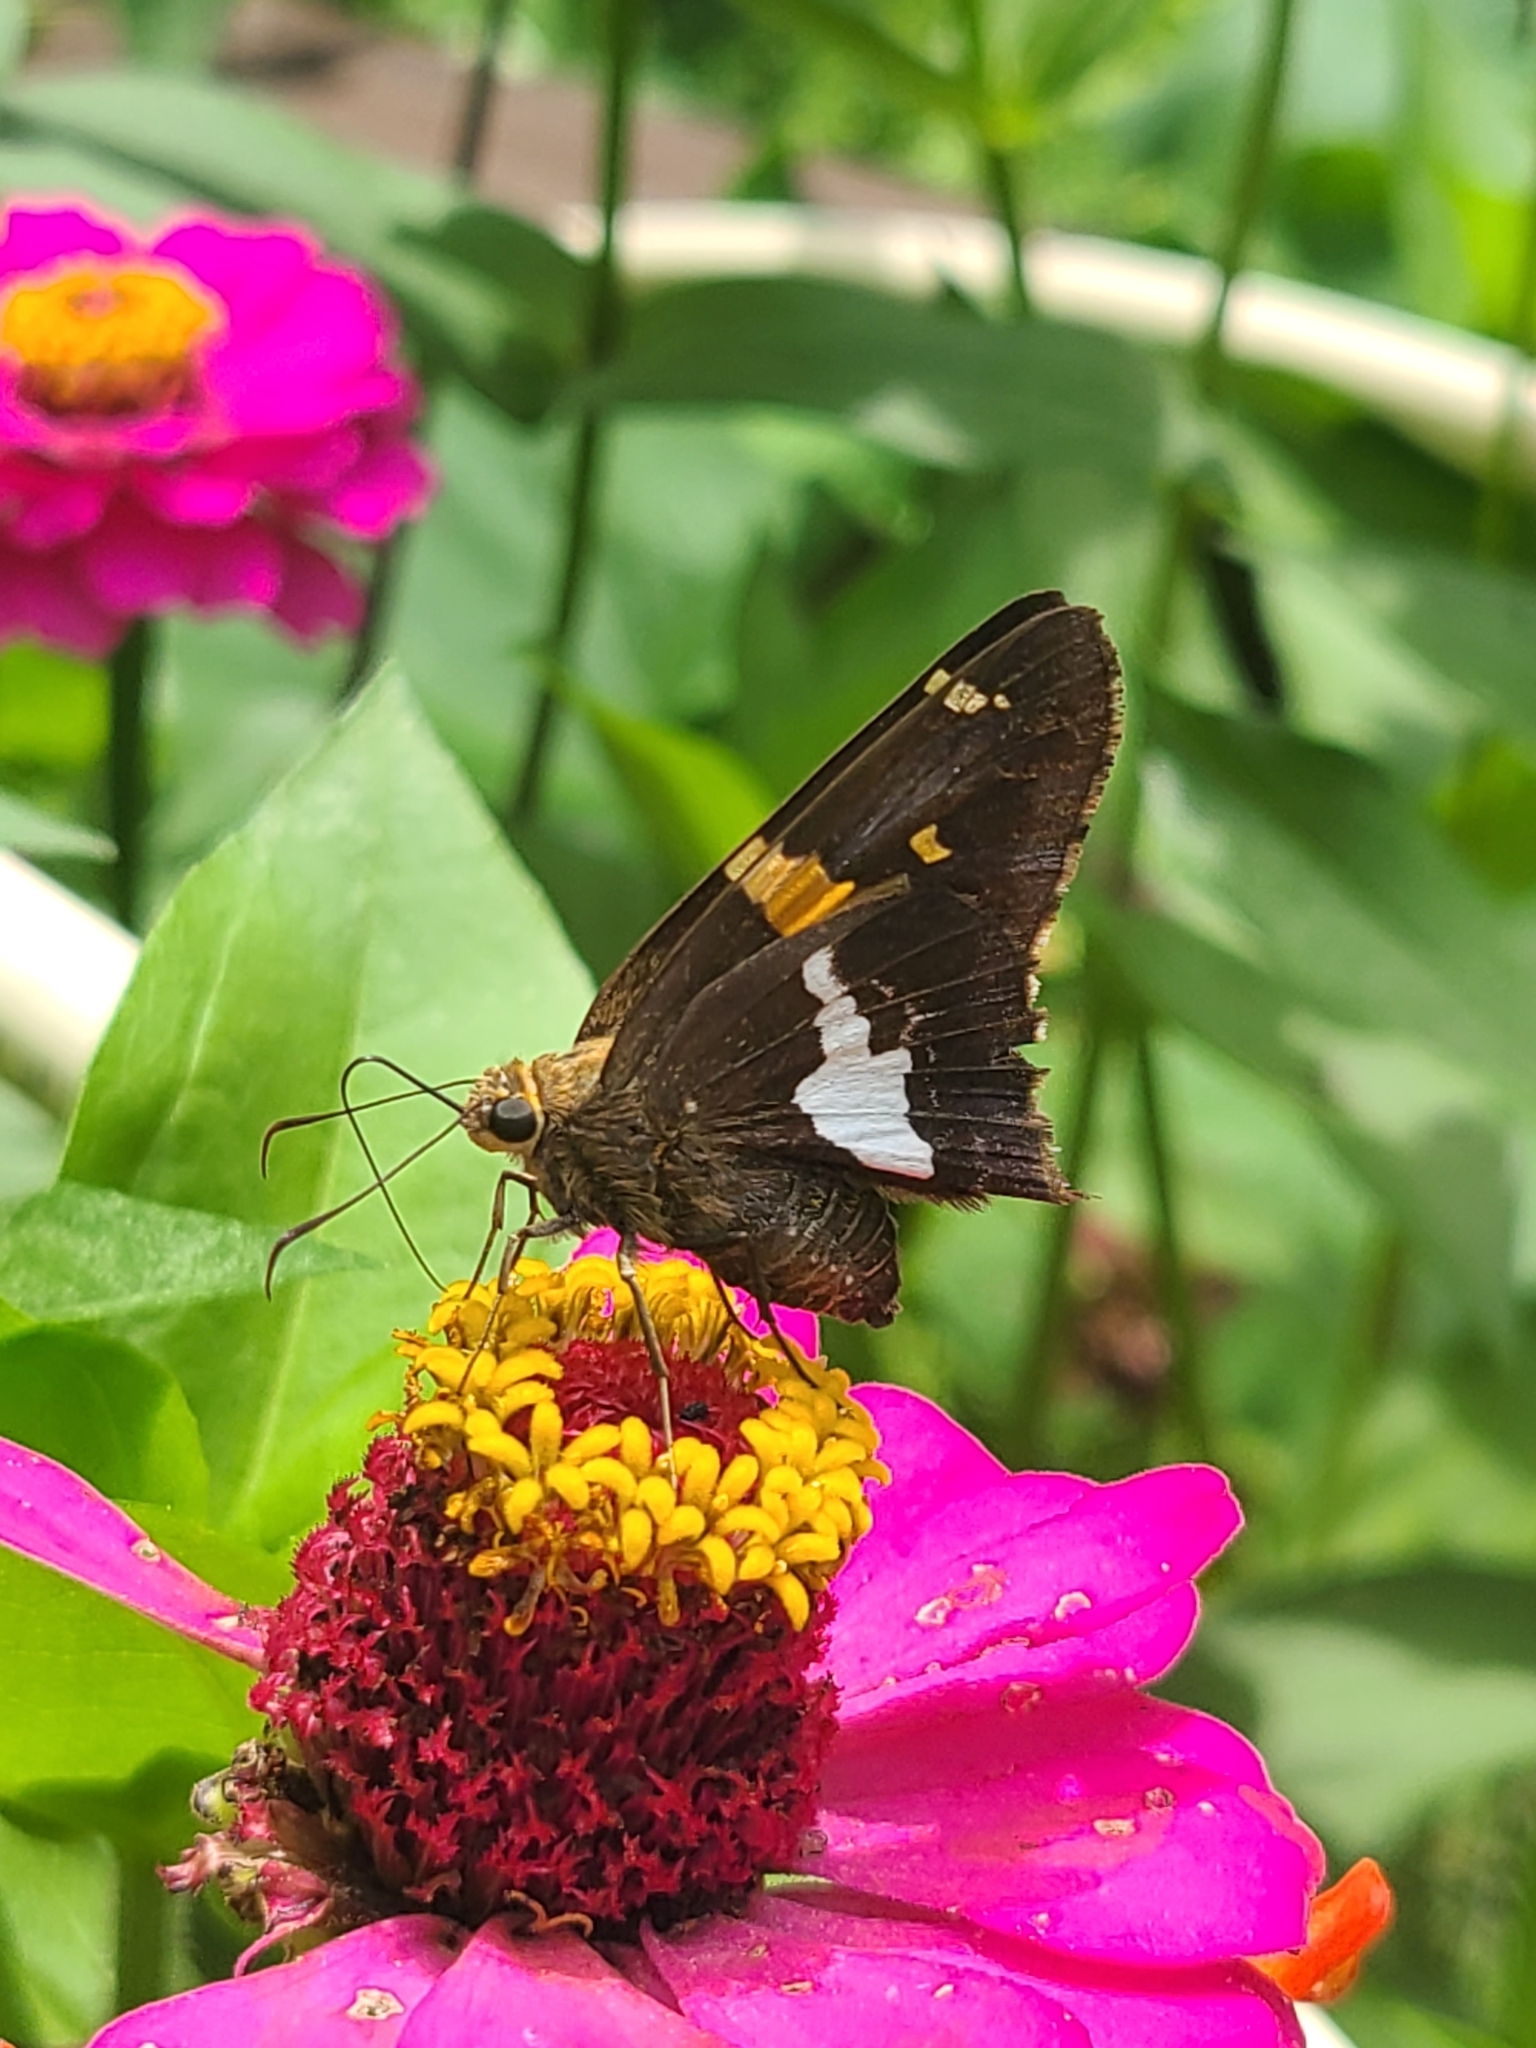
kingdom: Animalia
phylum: Arthropoda
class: Insecta
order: Lepidoptera
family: Hesperiidae
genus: Epargyreus
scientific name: Epargyreus clarus
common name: Silver-spotted skipper
